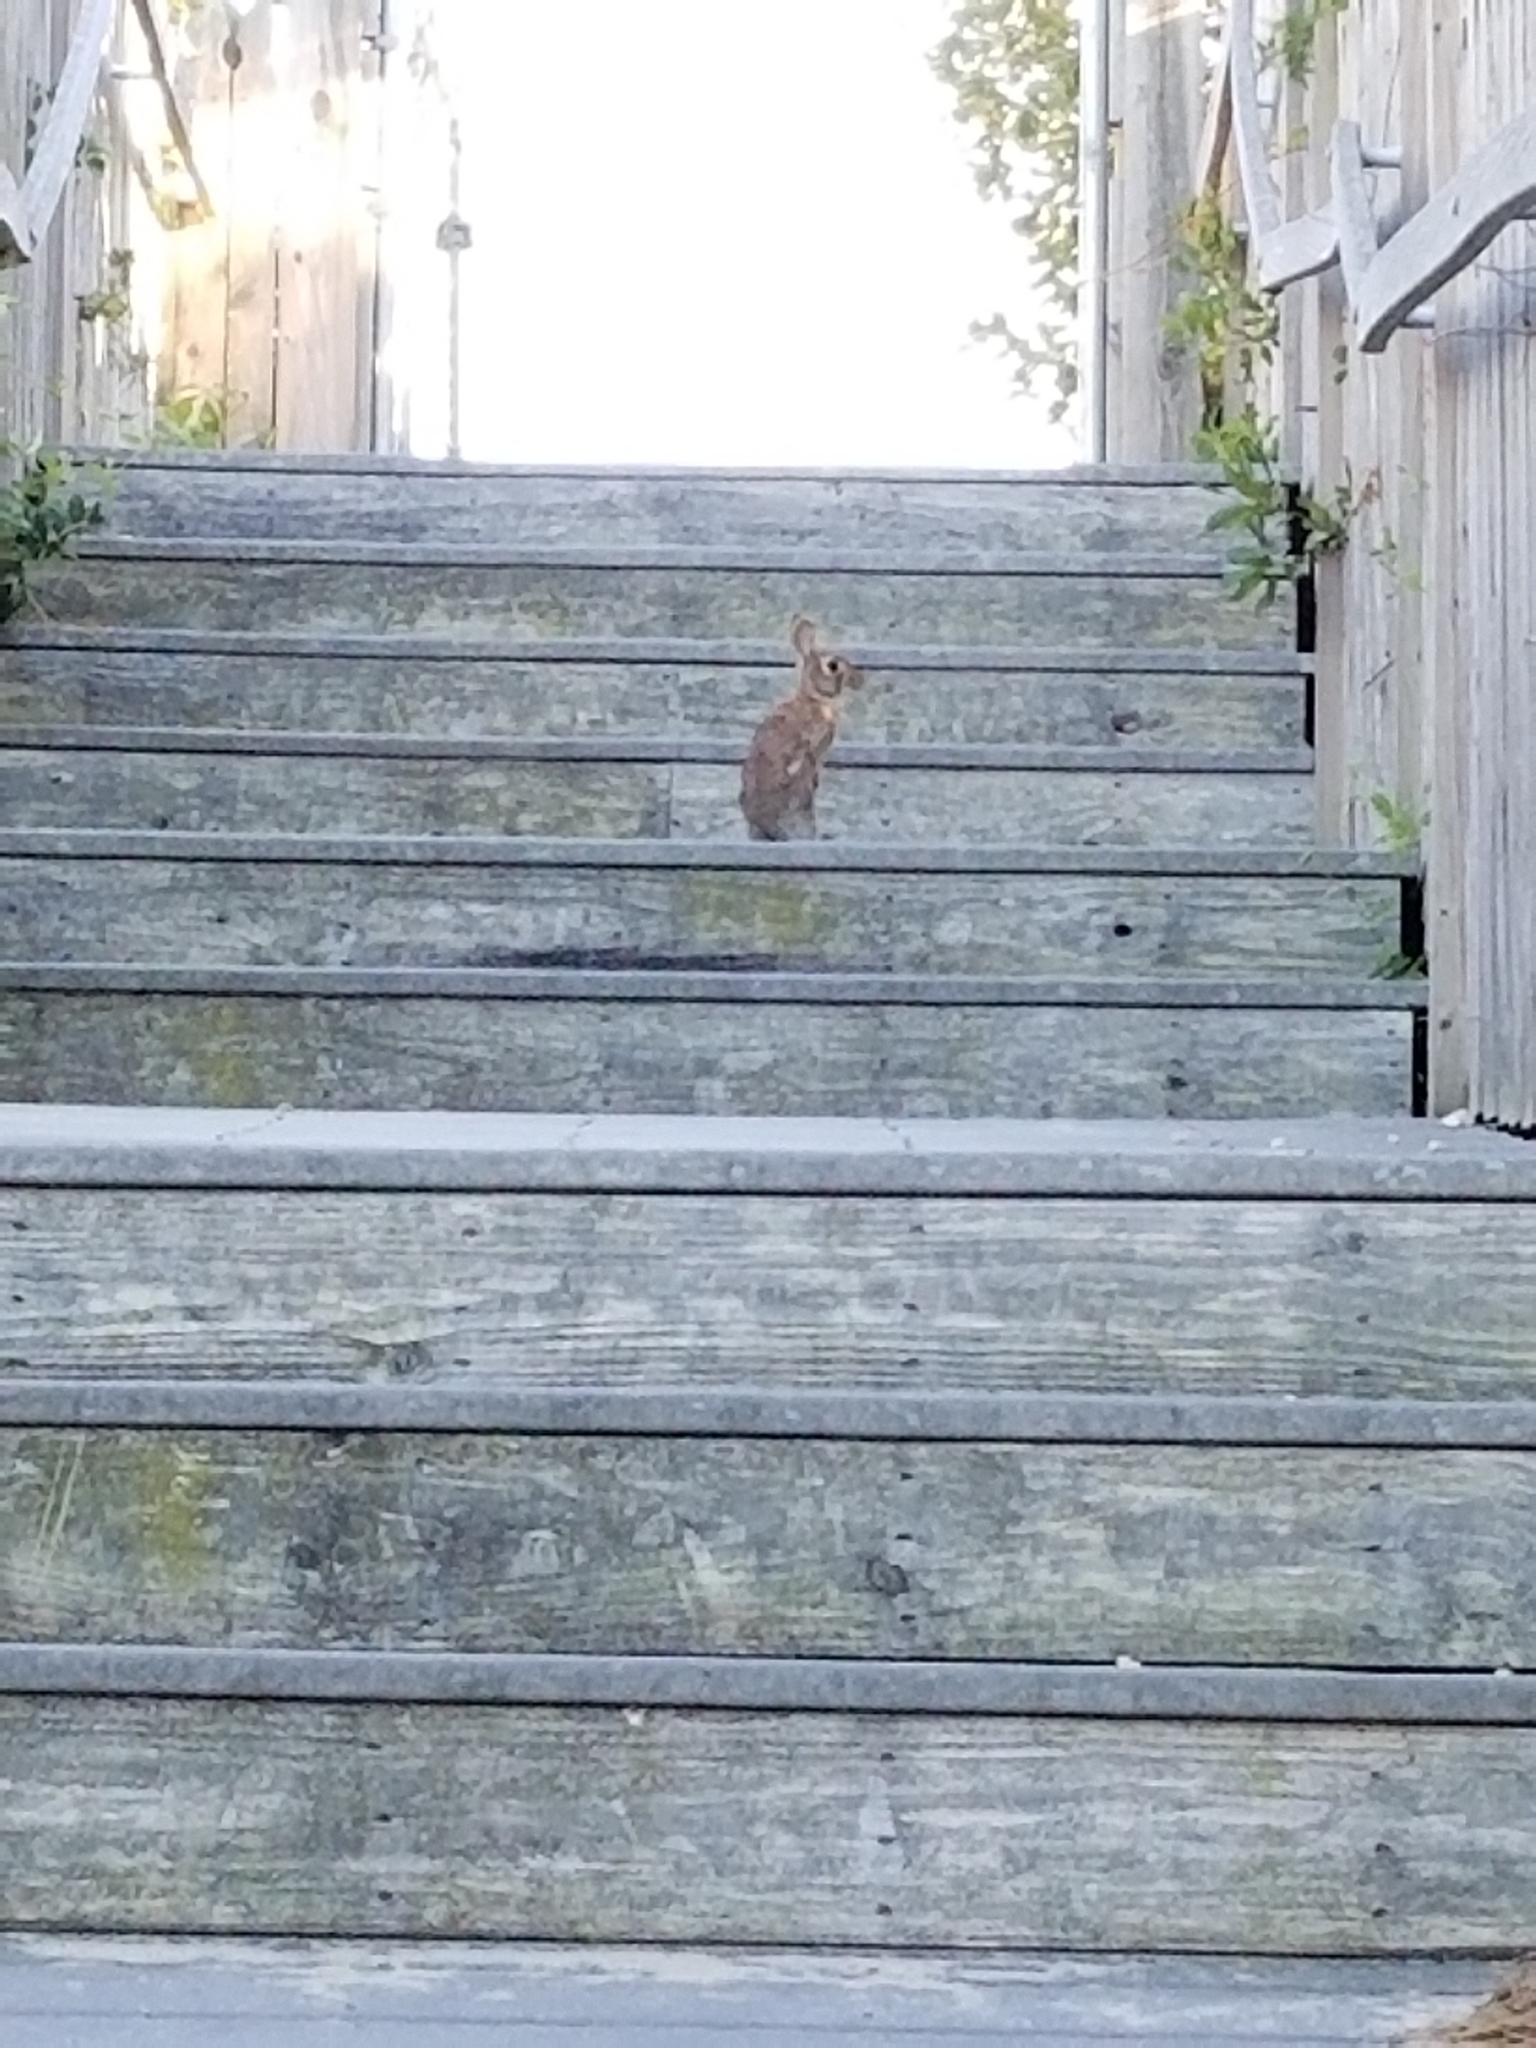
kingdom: Animalia
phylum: Chordata
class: Mammalia
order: Lagomorpha
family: Leporidae
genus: Sylvilagus
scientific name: Sylvilagus floridanus
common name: Eastern cottontail
